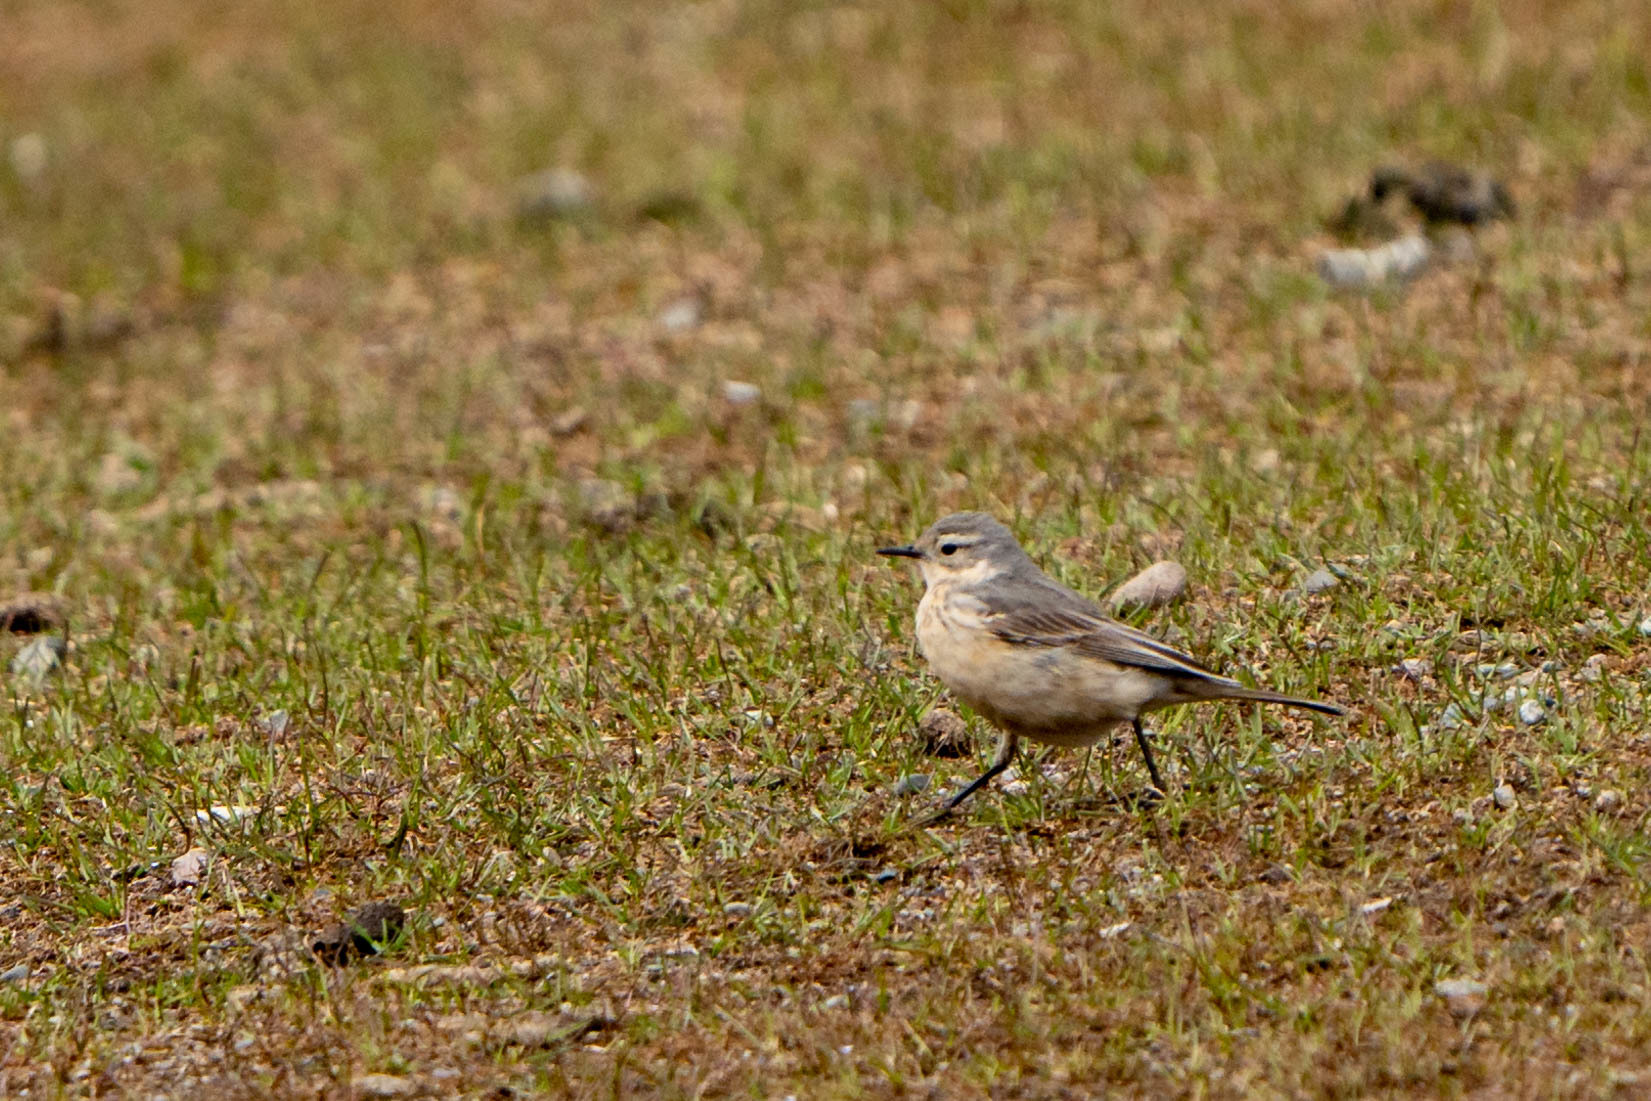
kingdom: Animalia
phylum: Chordata
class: Aves
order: Passeriformes
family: Motacillidae
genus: Anthus
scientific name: Anthus rubescens
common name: Buff-bellied pipit
